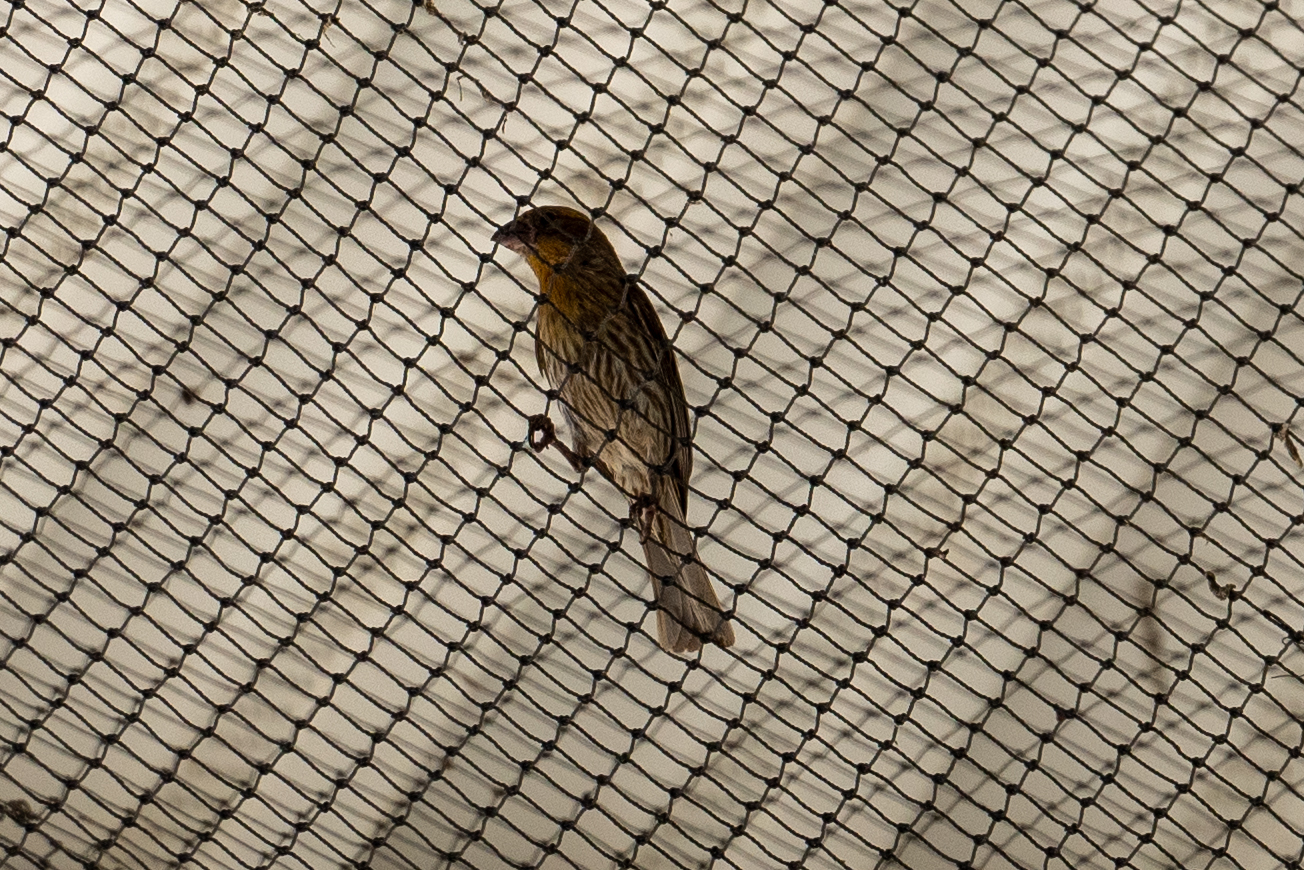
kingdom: Animalia
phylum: Chordata
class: Aves
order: Passeriformes
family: Fringillidae
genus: Haemorhous
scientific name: Haemorhous mexicanus
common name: House finch
